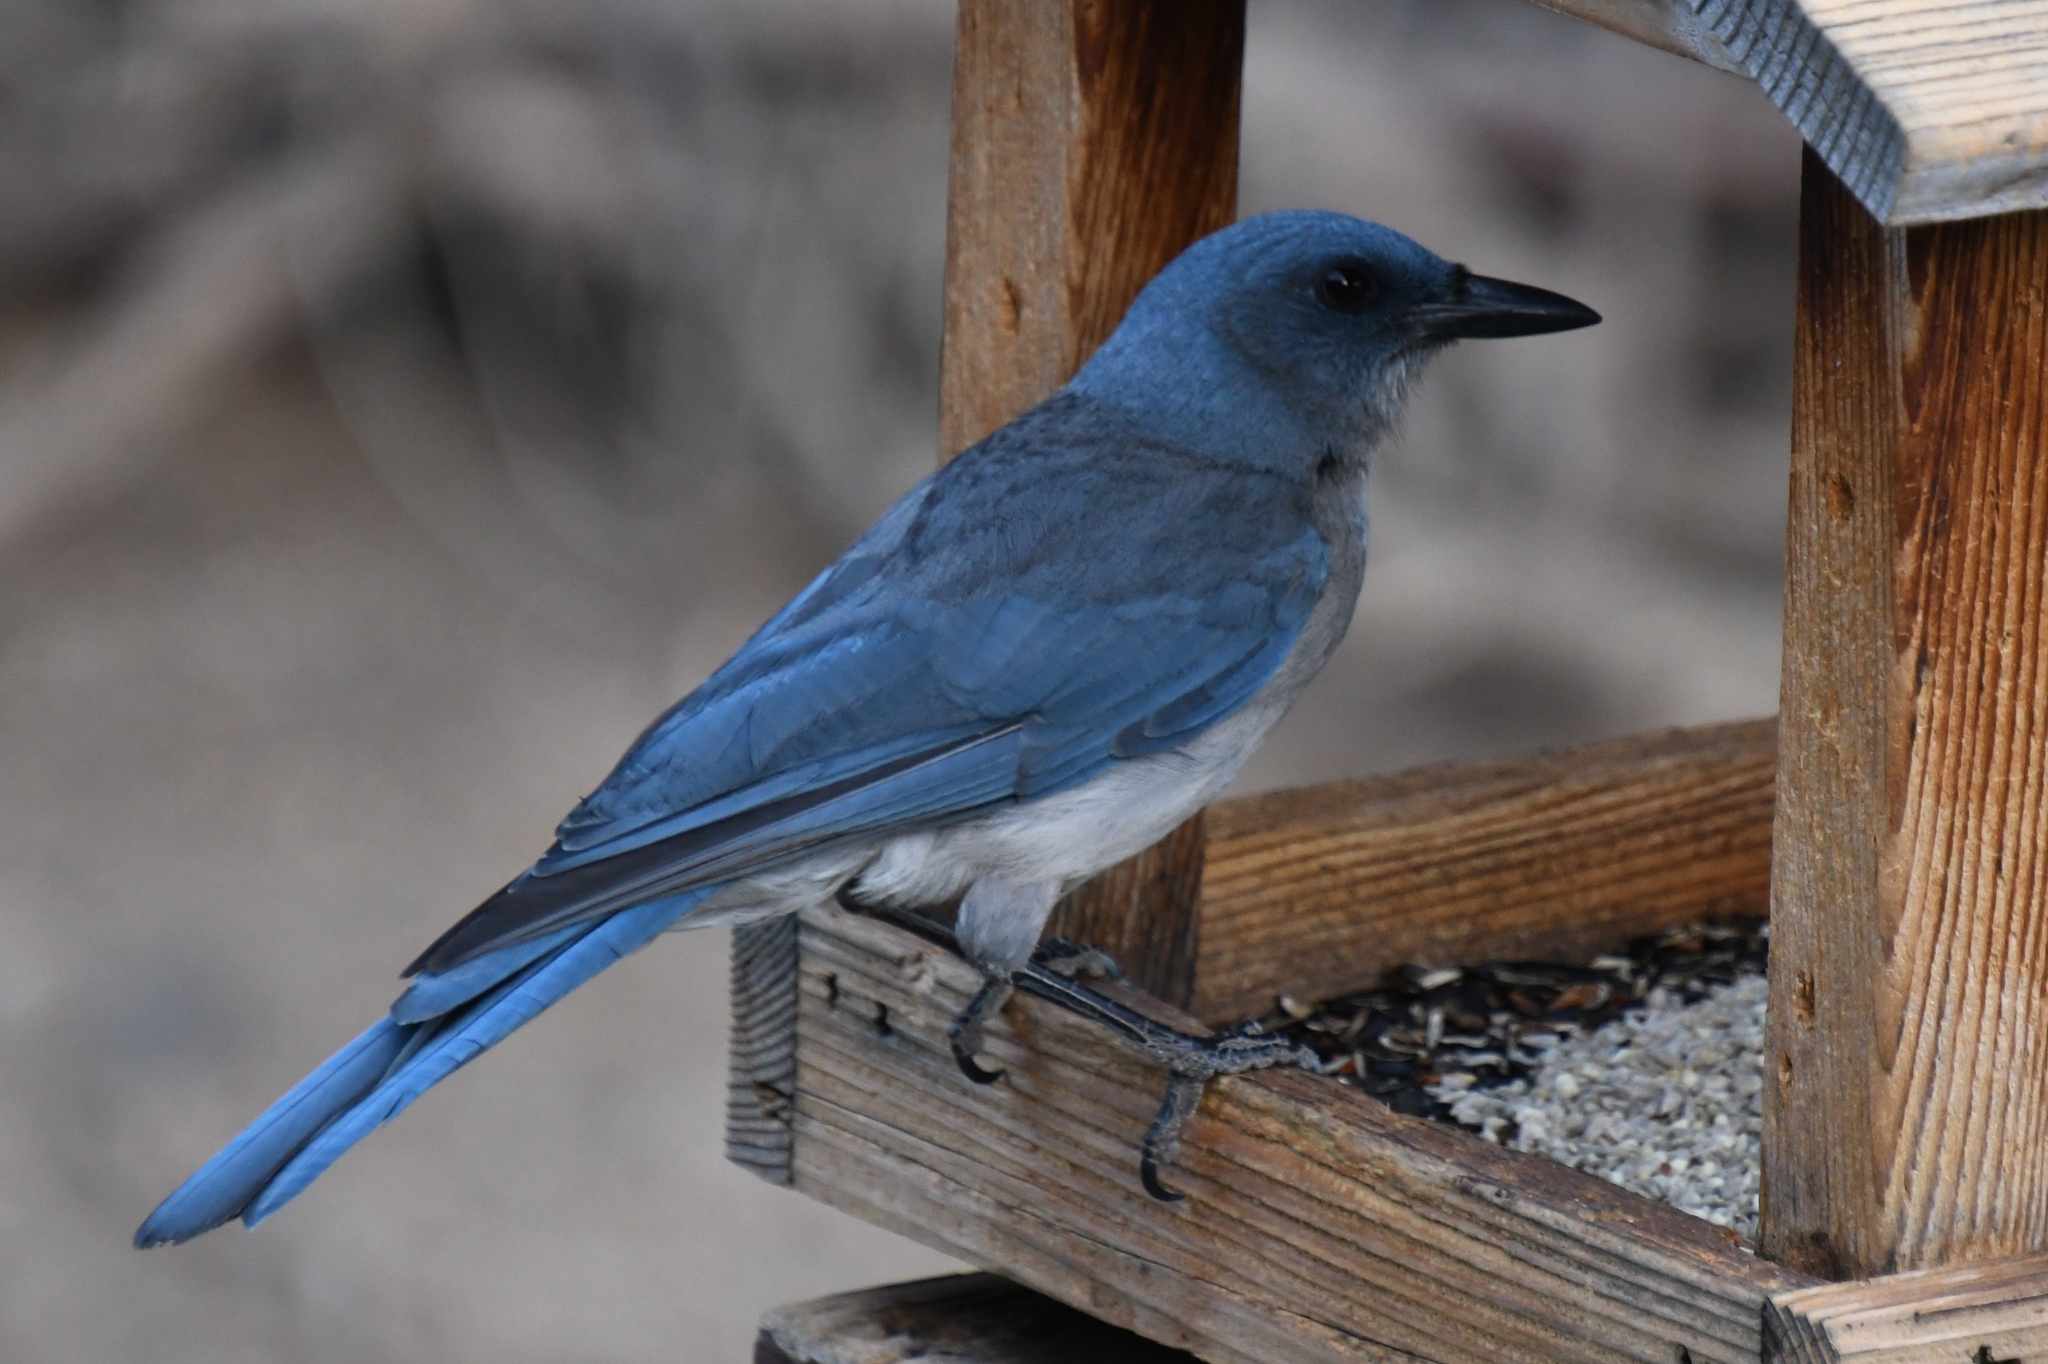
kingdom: Animalia
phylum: Chordata
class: Aves
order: Passeriformes
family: Corvidae
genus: Aphelocoma
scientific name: Aphelocoma wollweberi
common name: Mexican jay
